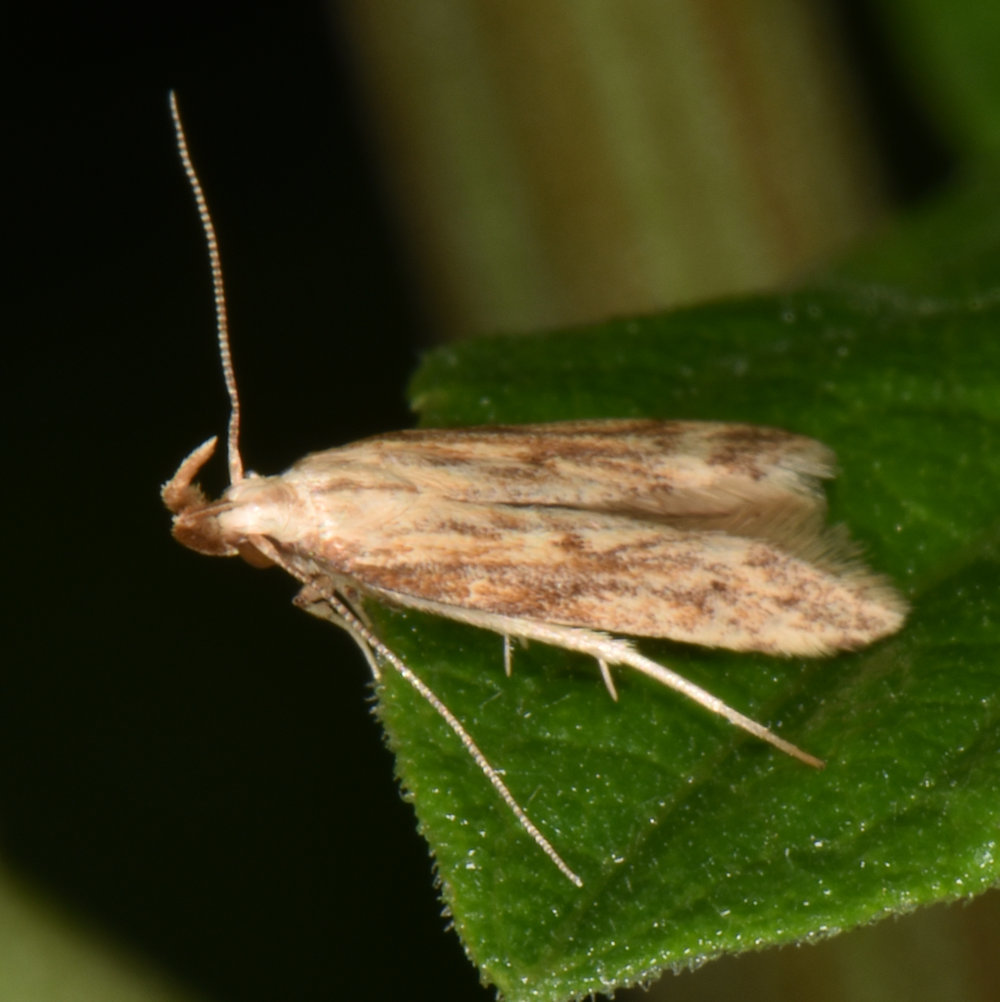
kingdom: Animalia
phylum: Arthropoda
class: Insecta
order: Lepidoptera
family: Gelechiidae
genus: Metzneria
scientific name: Metzneria lappella
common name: Burdock neb
